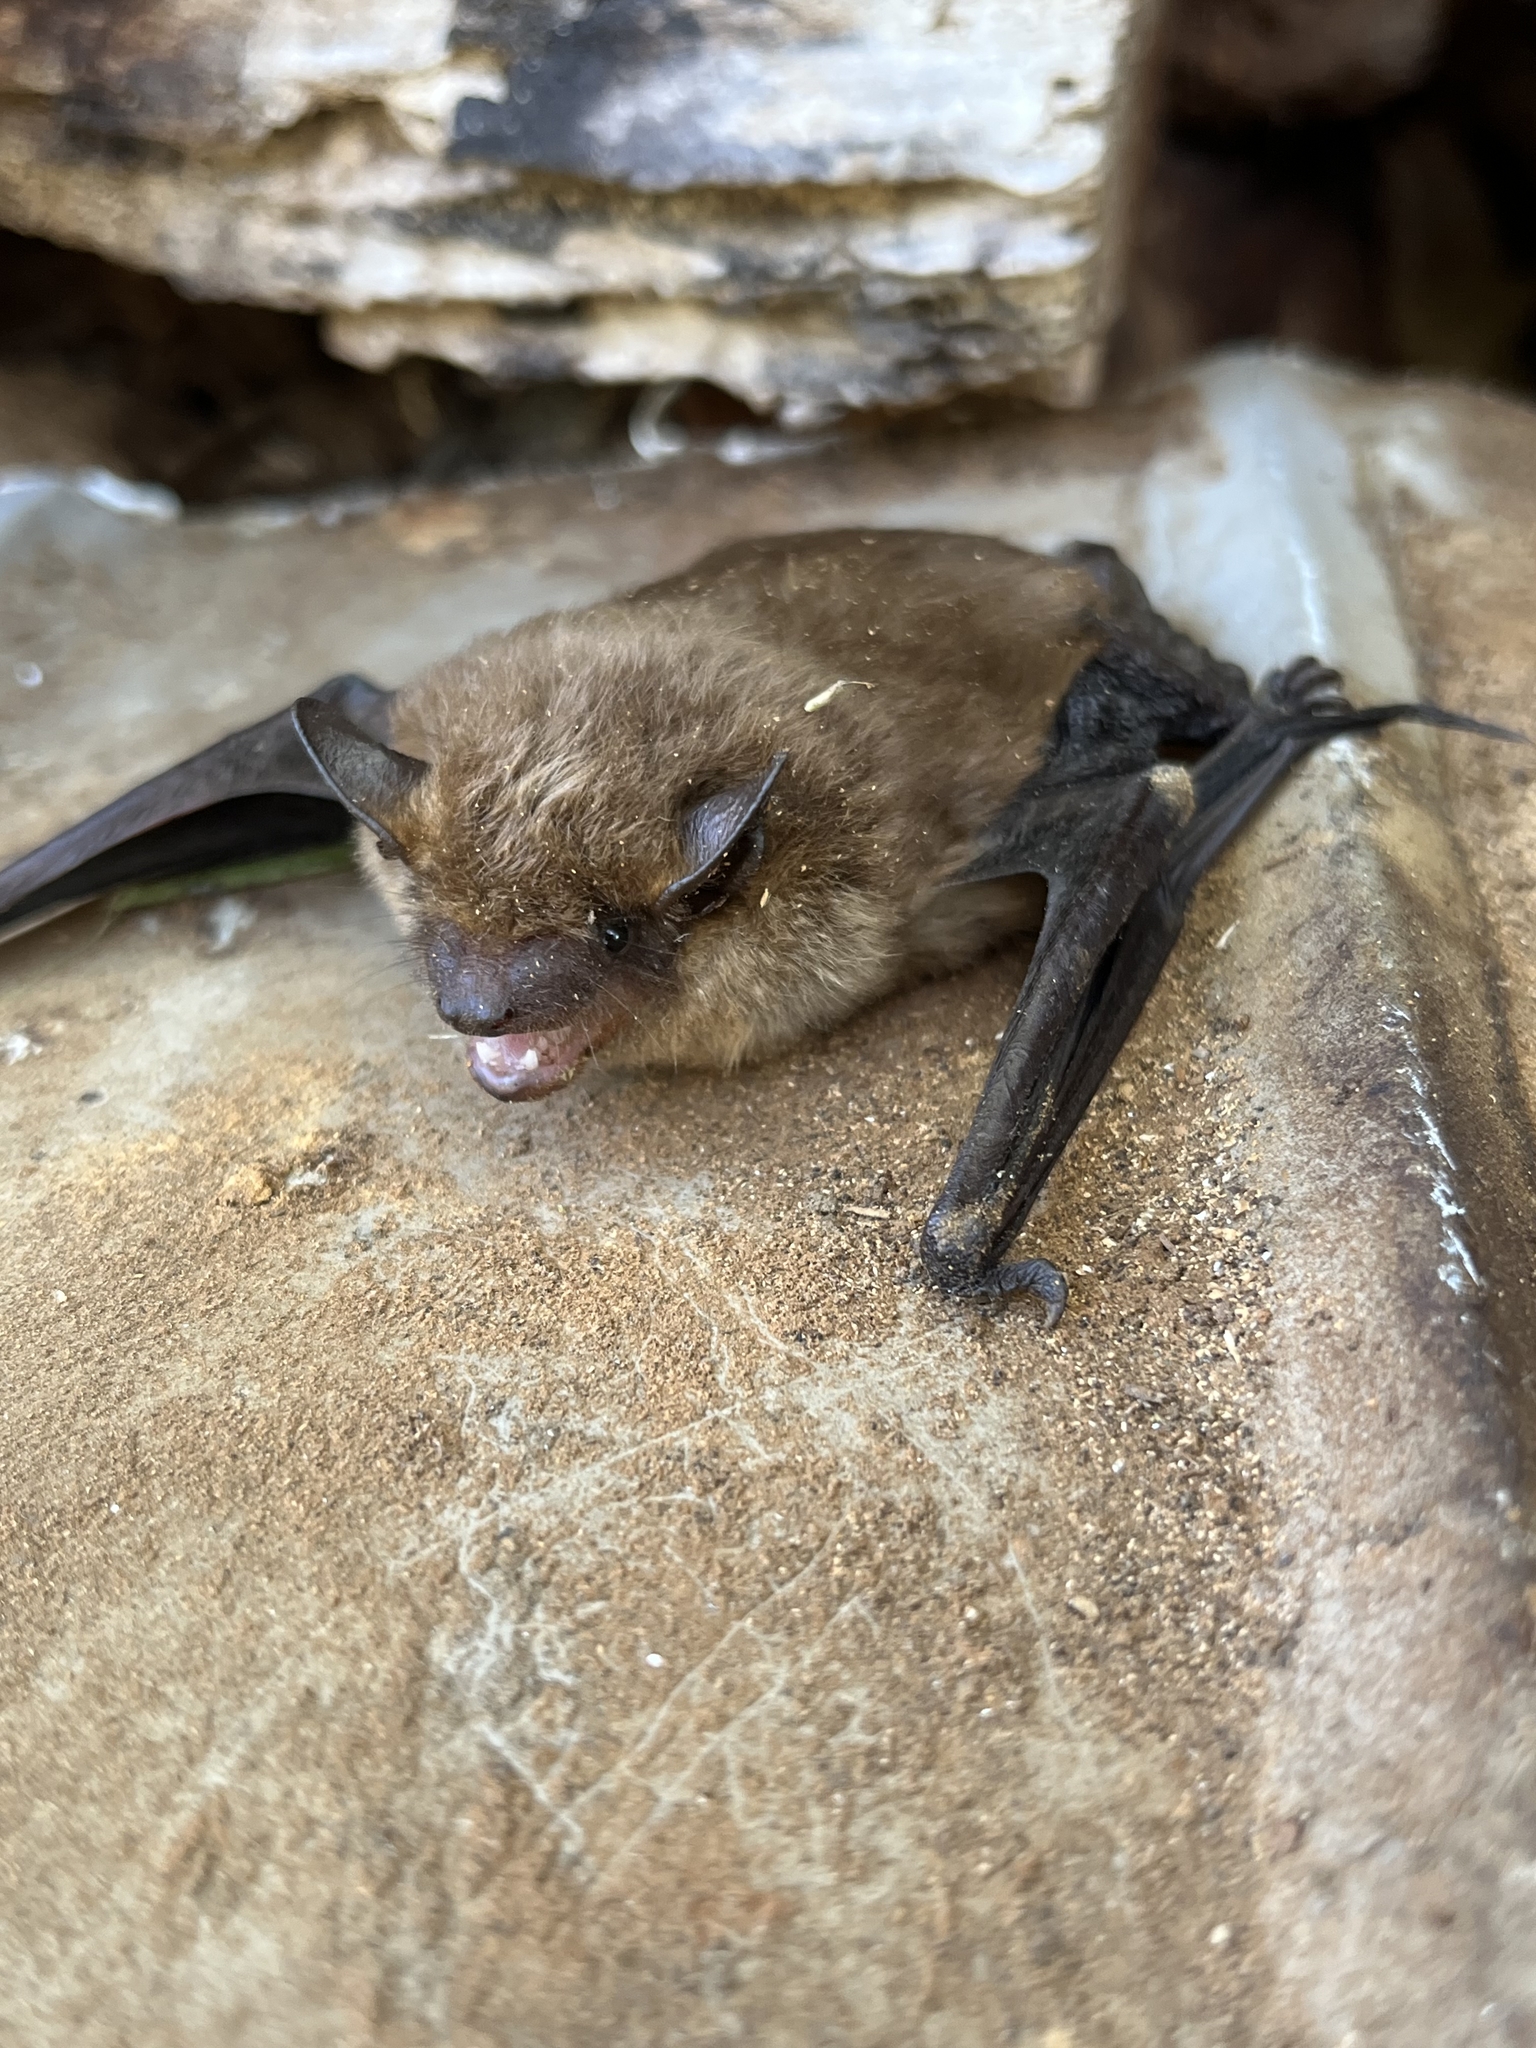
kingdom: Animalia
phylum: Chordata
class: Mammalia
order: Chiroptera
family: Vespertilionidae
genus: Eptesicus
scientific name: Eptesicus fuscus
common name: Big brown bat
